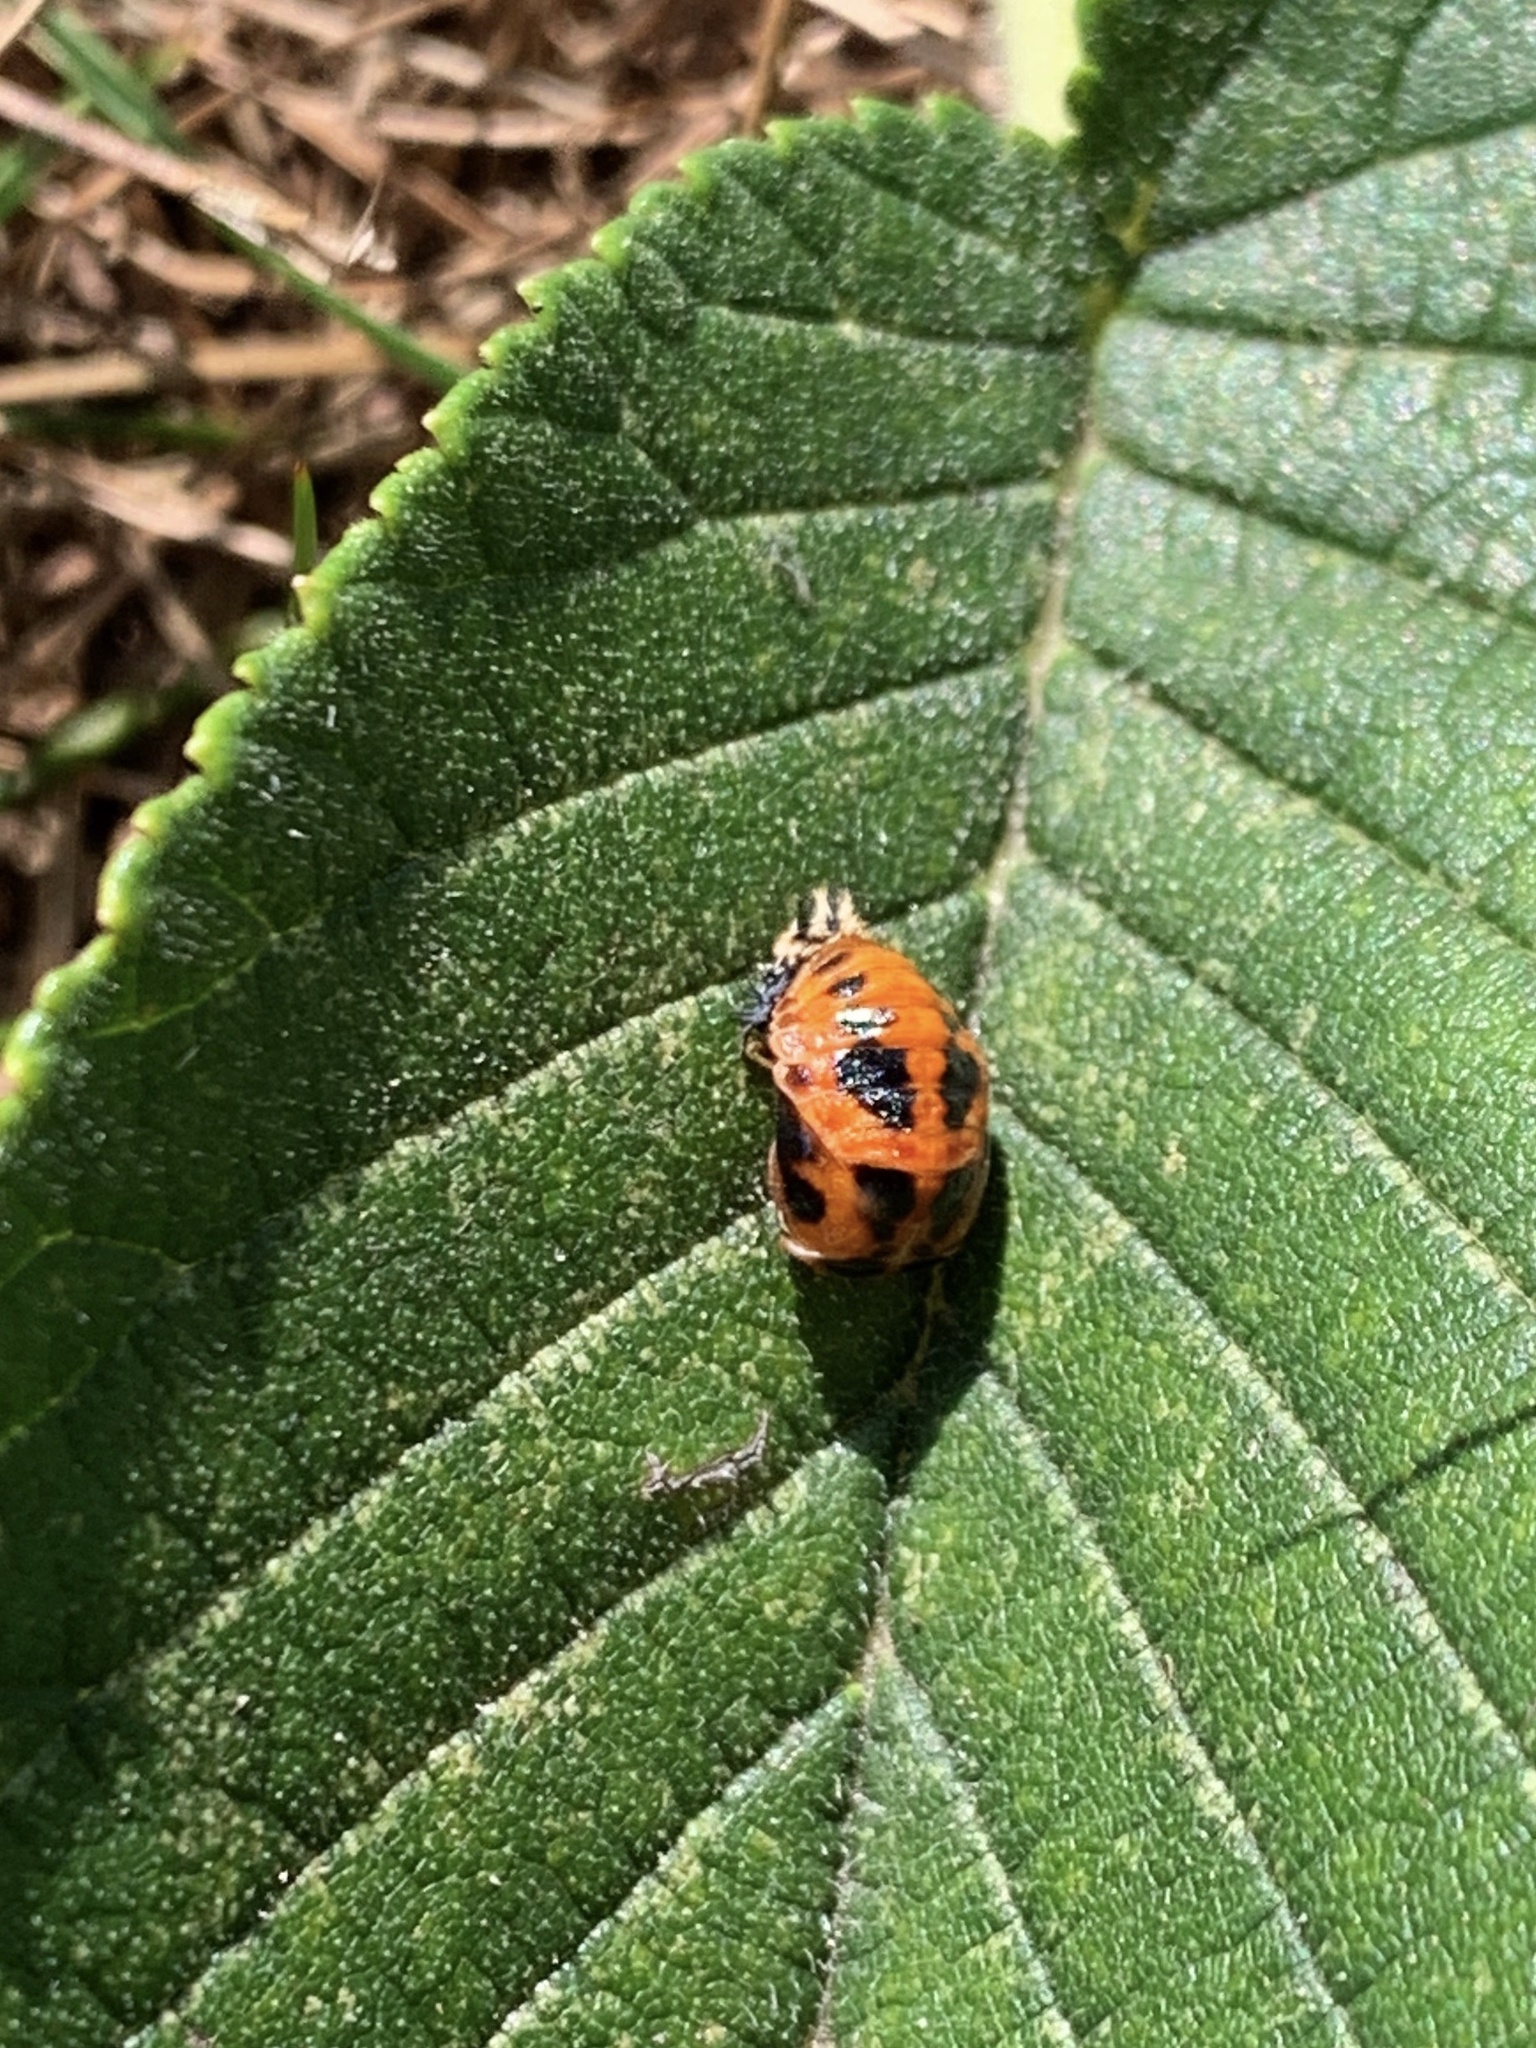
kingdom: Animalia
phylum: Arthropoda
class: Insecta
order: Coleoptera
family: Coccinellidae
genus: Harmonia
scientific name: Harmonia axyridis
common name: Harlequin ladybird
